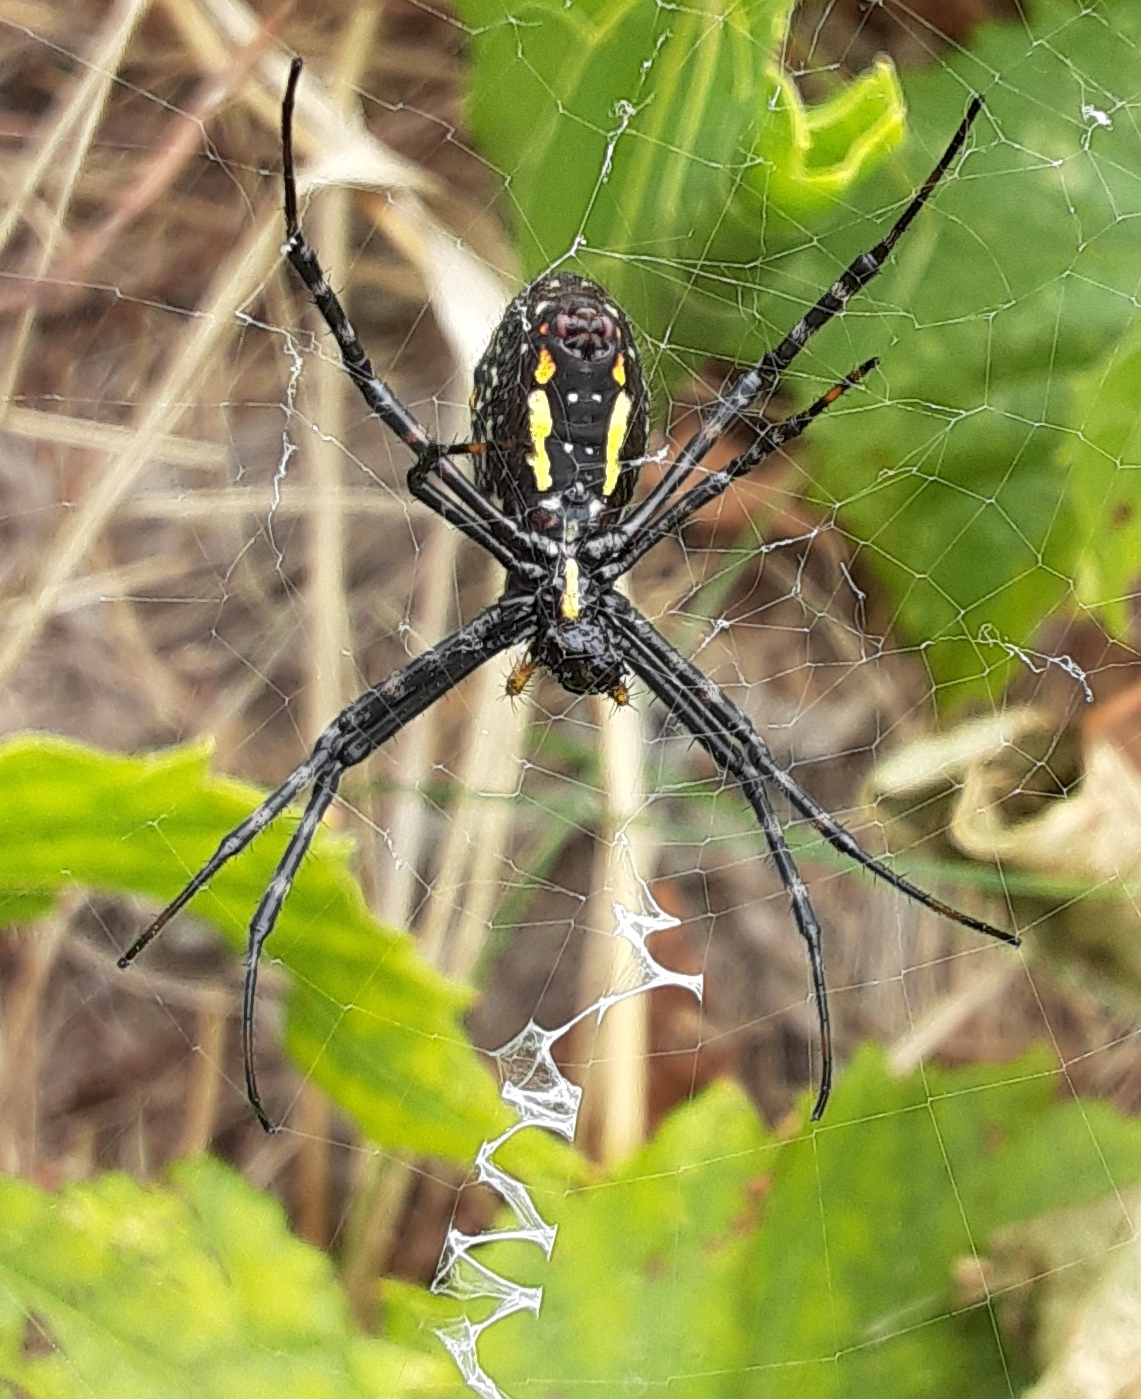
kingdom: Animalia
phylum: Arthropoda
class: Arachnida
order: Araneae
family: Araneidae
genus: Argiope
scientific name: Argiope aurantia
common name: Orb weavers
